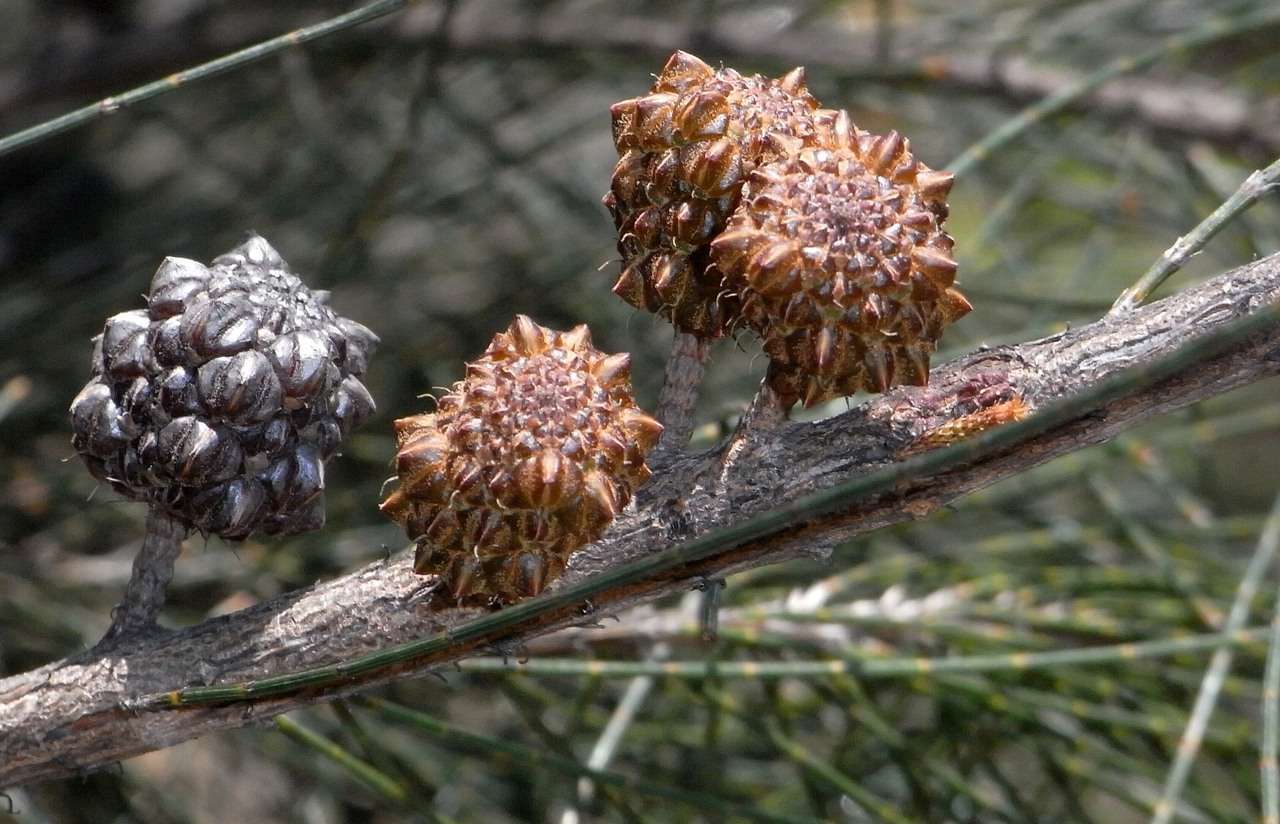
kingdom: Plantae
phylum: Tracheophyta
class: Magnoliopsida
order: Fagales
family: Casuarinaceae
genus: Allocasuarina
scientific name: Allocasuarina littoralis
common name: Black she-oak
